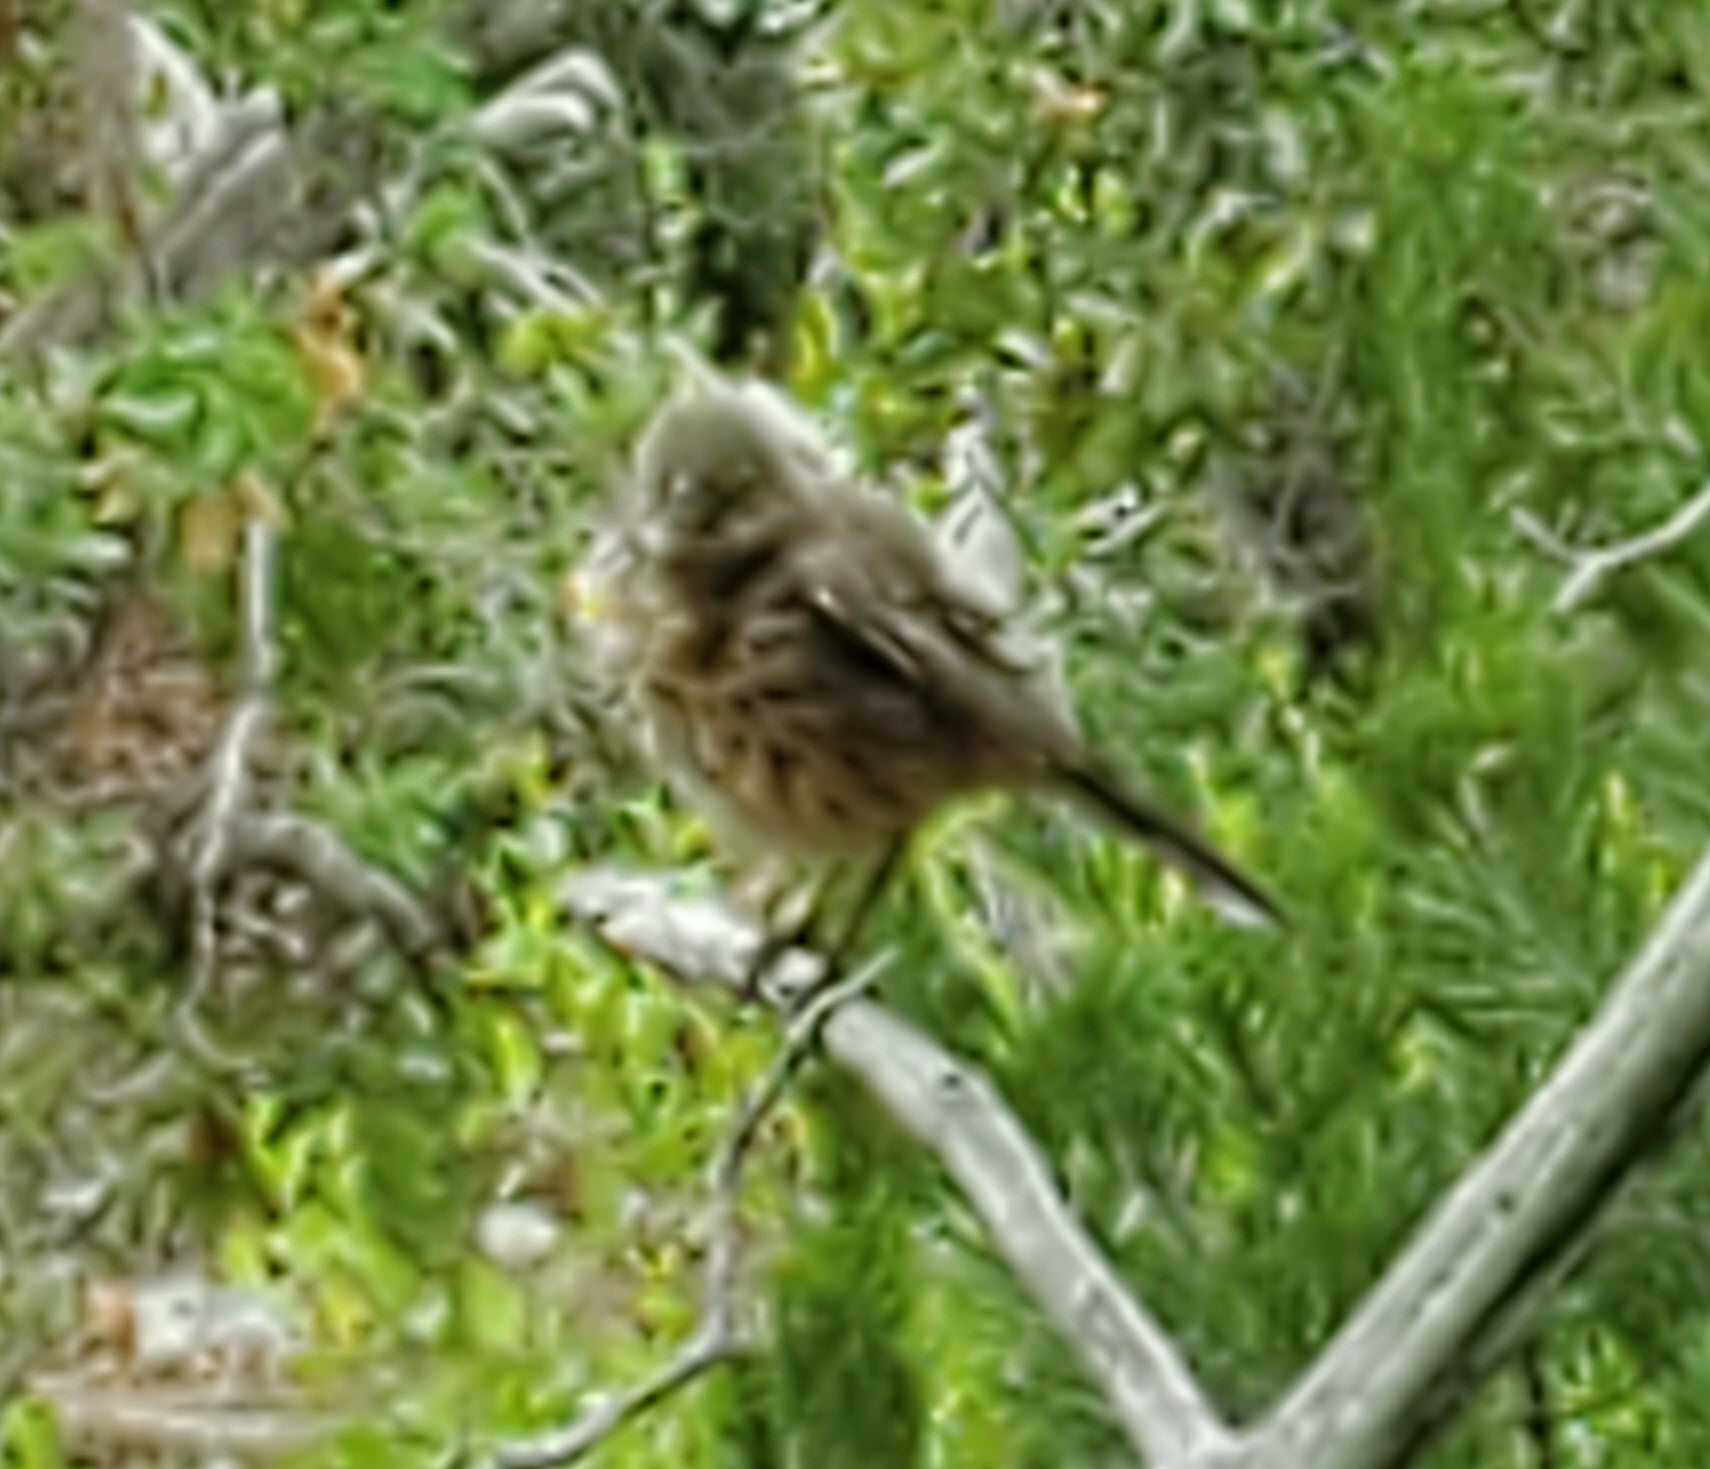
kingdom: Animalia
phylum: Chordata
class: Aves
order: Passeriformes
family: Mimidae
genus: Oreoscoptes
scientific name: Oreoscoptes montanus
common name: Sage thrasher
